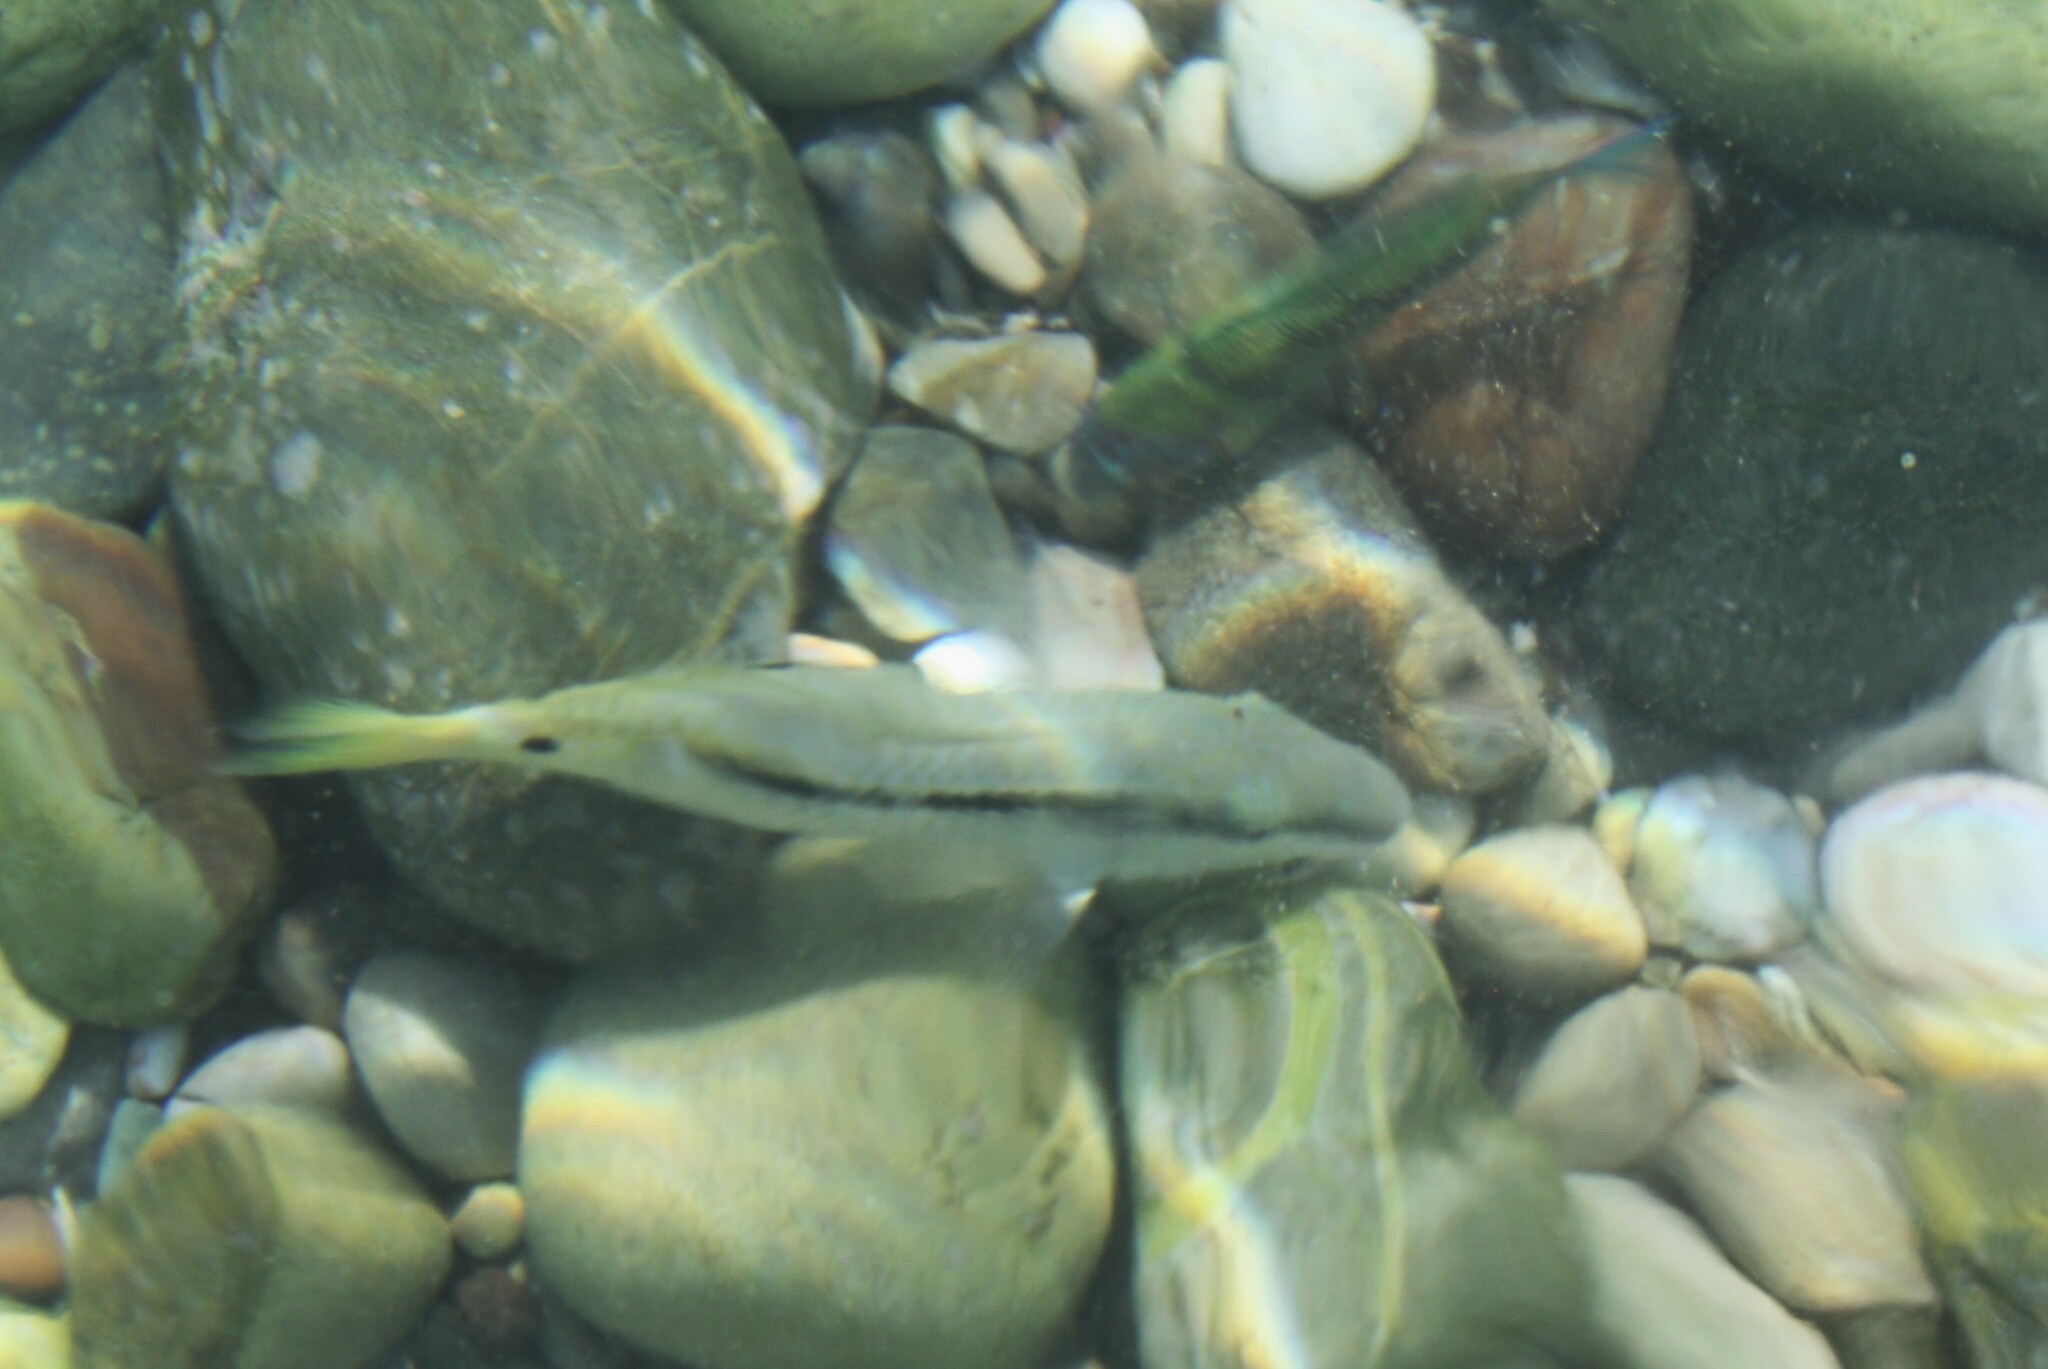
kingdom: Animalia
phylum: Chordata
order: Perciformes
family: Mullidae
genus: Parupeneus
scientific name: Parupeneus forsskali
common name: Red sea goatfish
